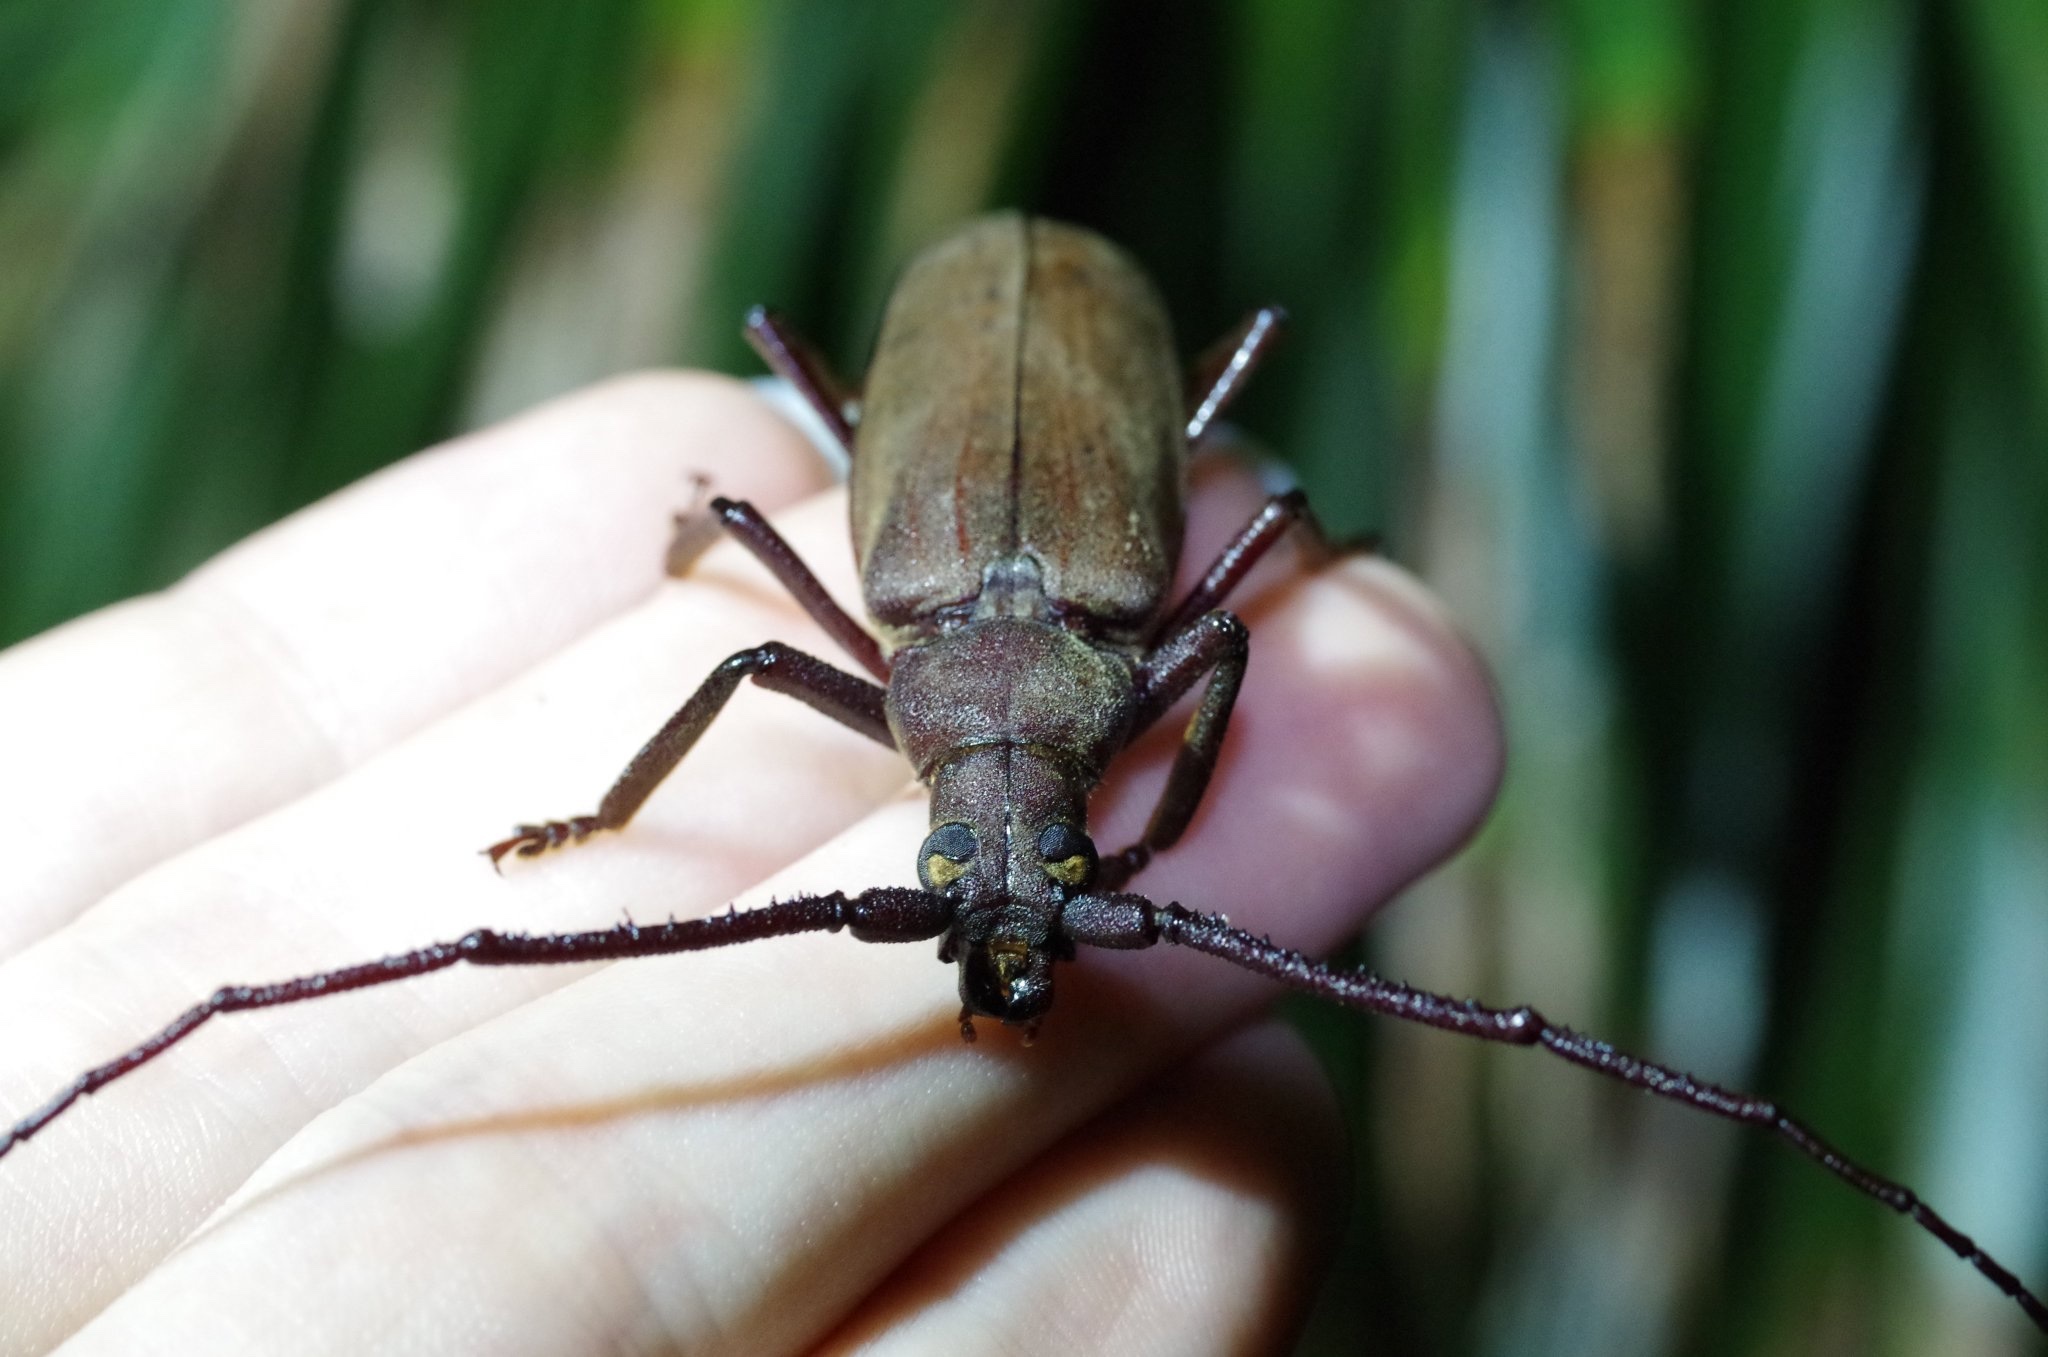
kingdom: Animalia
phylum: Arthropoda
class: Insecta
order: Coleoptera
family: Cerambycidae
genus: Aegosoma
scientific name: Aegosoma scabricorne
